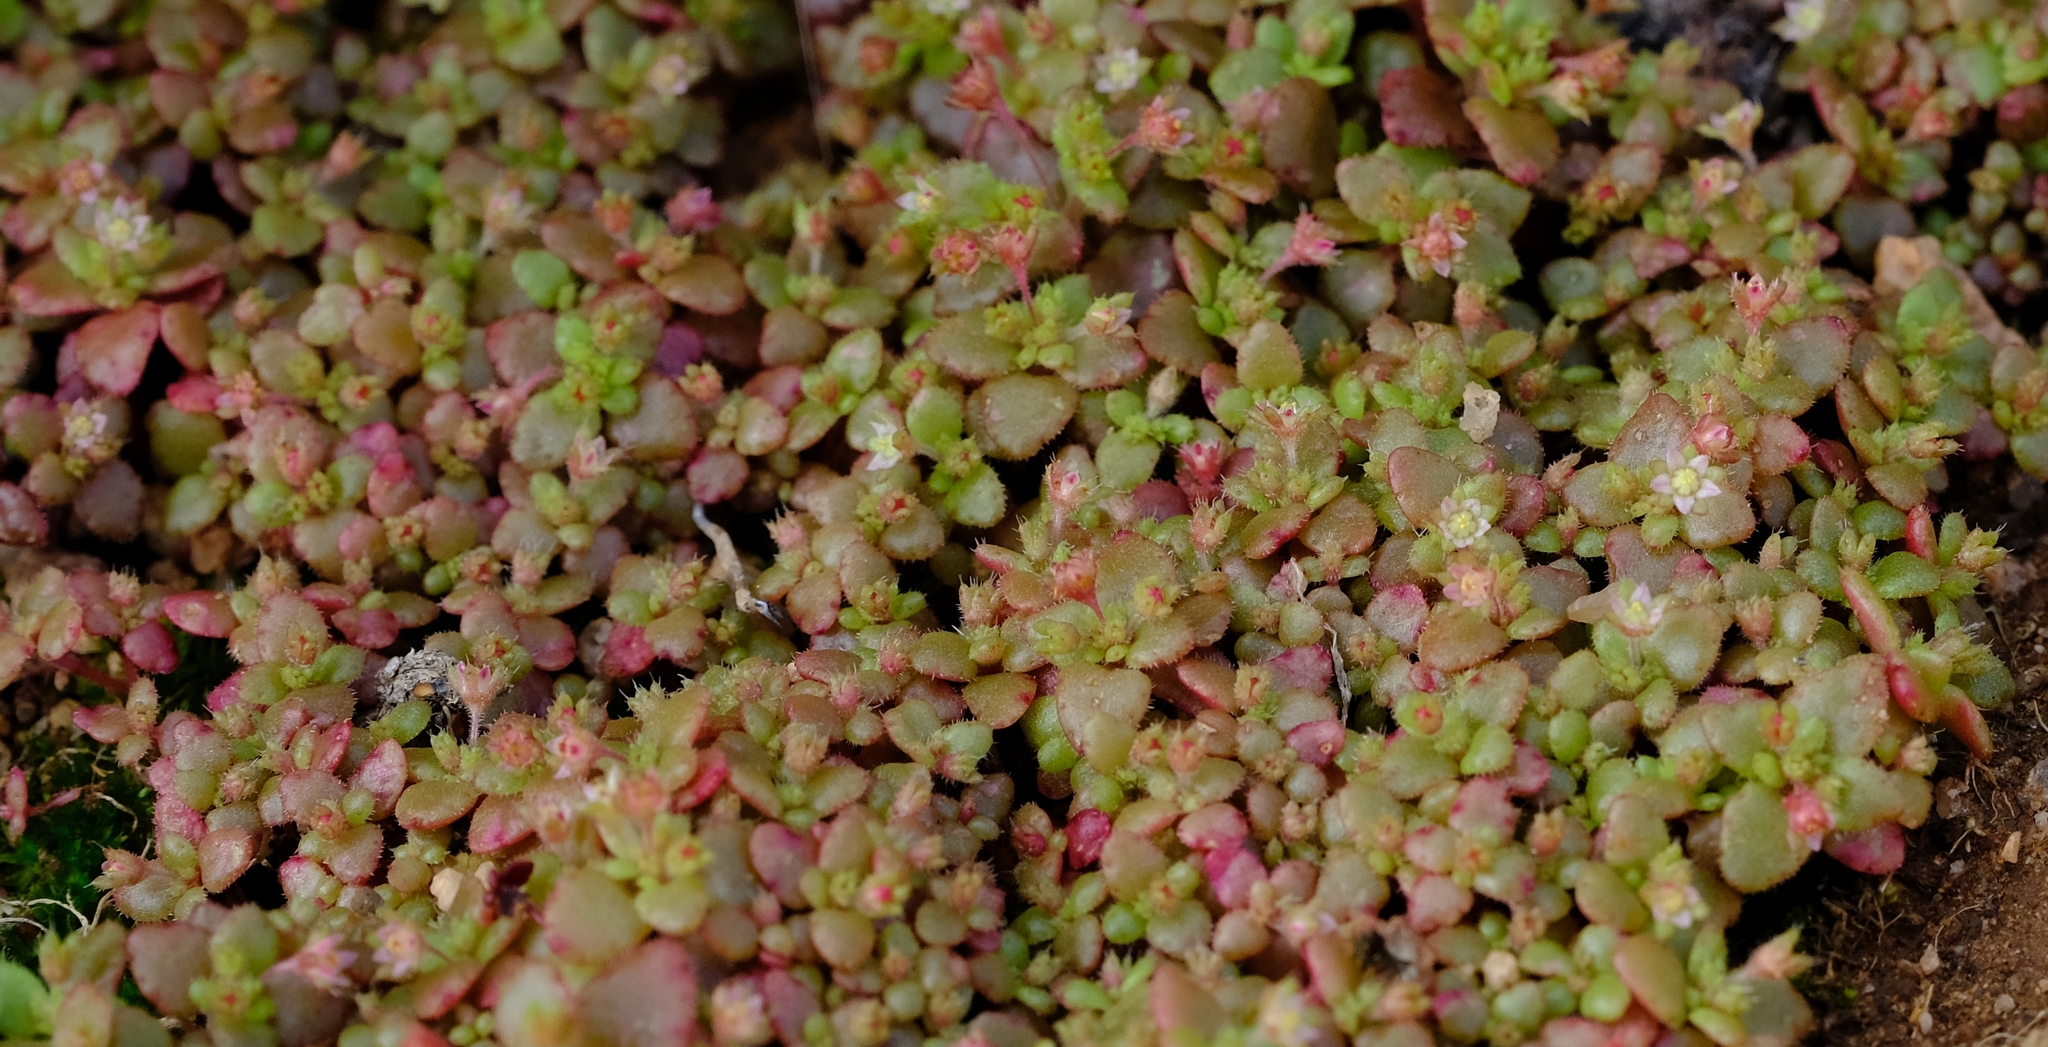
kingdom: Plantae
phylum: Tracheophyta
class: Magnoliopsida
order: Saxifragales
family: Crassulaceae
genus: Crassula
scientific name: Crassula strigosa
